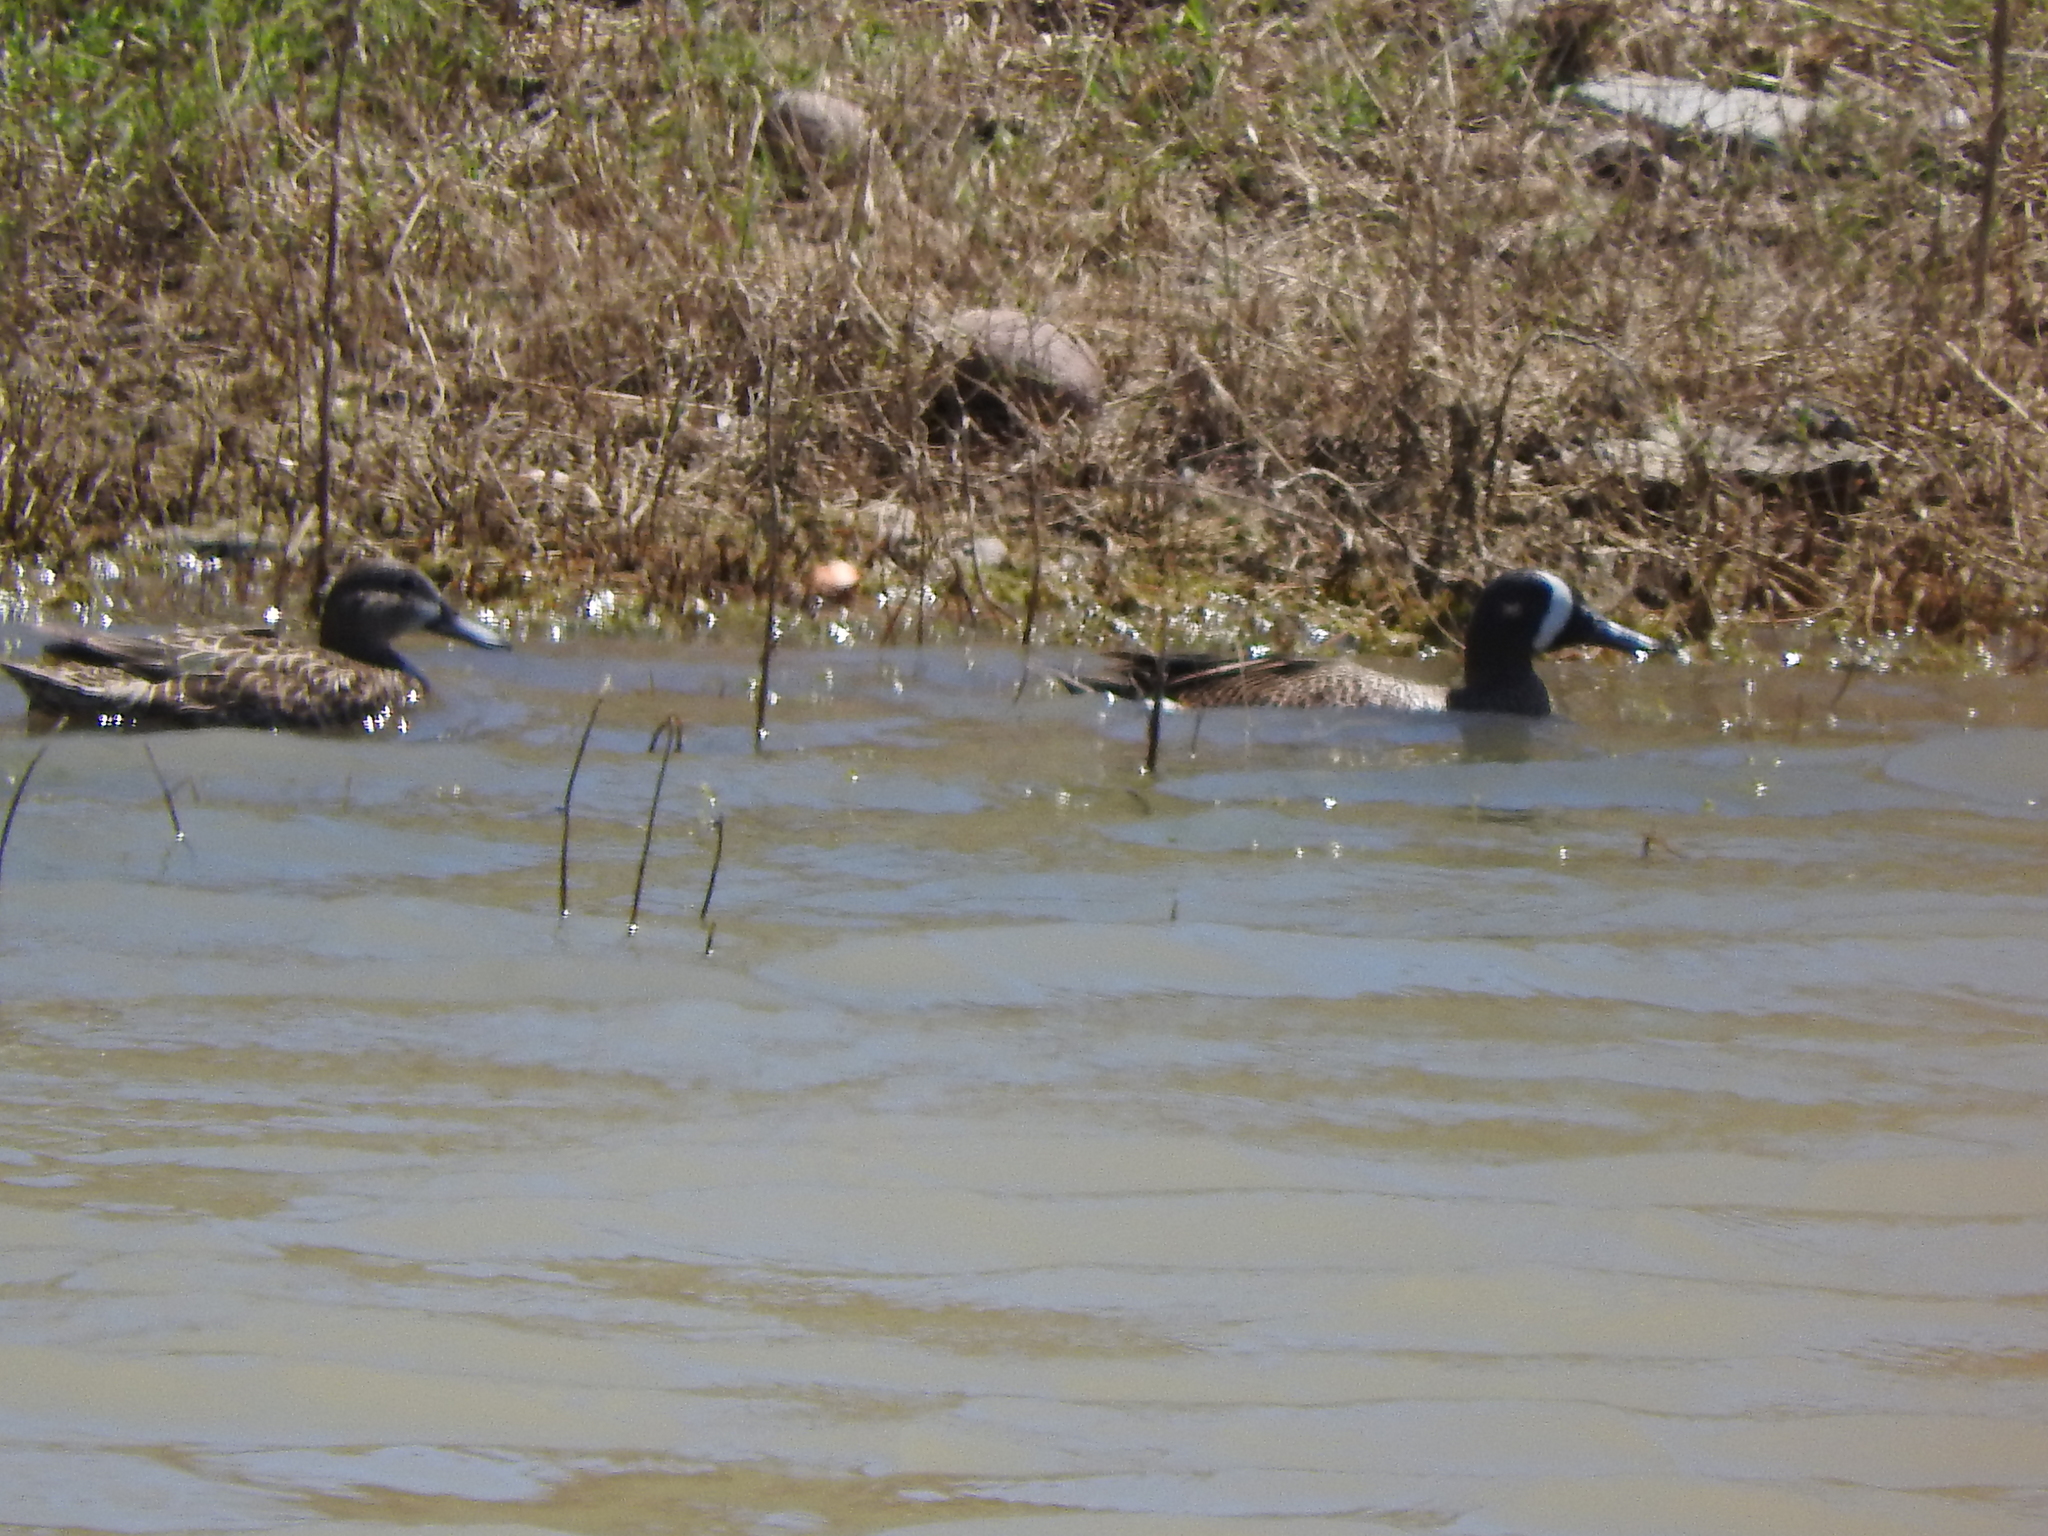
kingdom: Animalia
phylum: Chordata
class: Aves
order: Anseriformes
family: Anatidae
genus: Spatula
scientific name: Spatula discors
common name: Blue-winged teal
